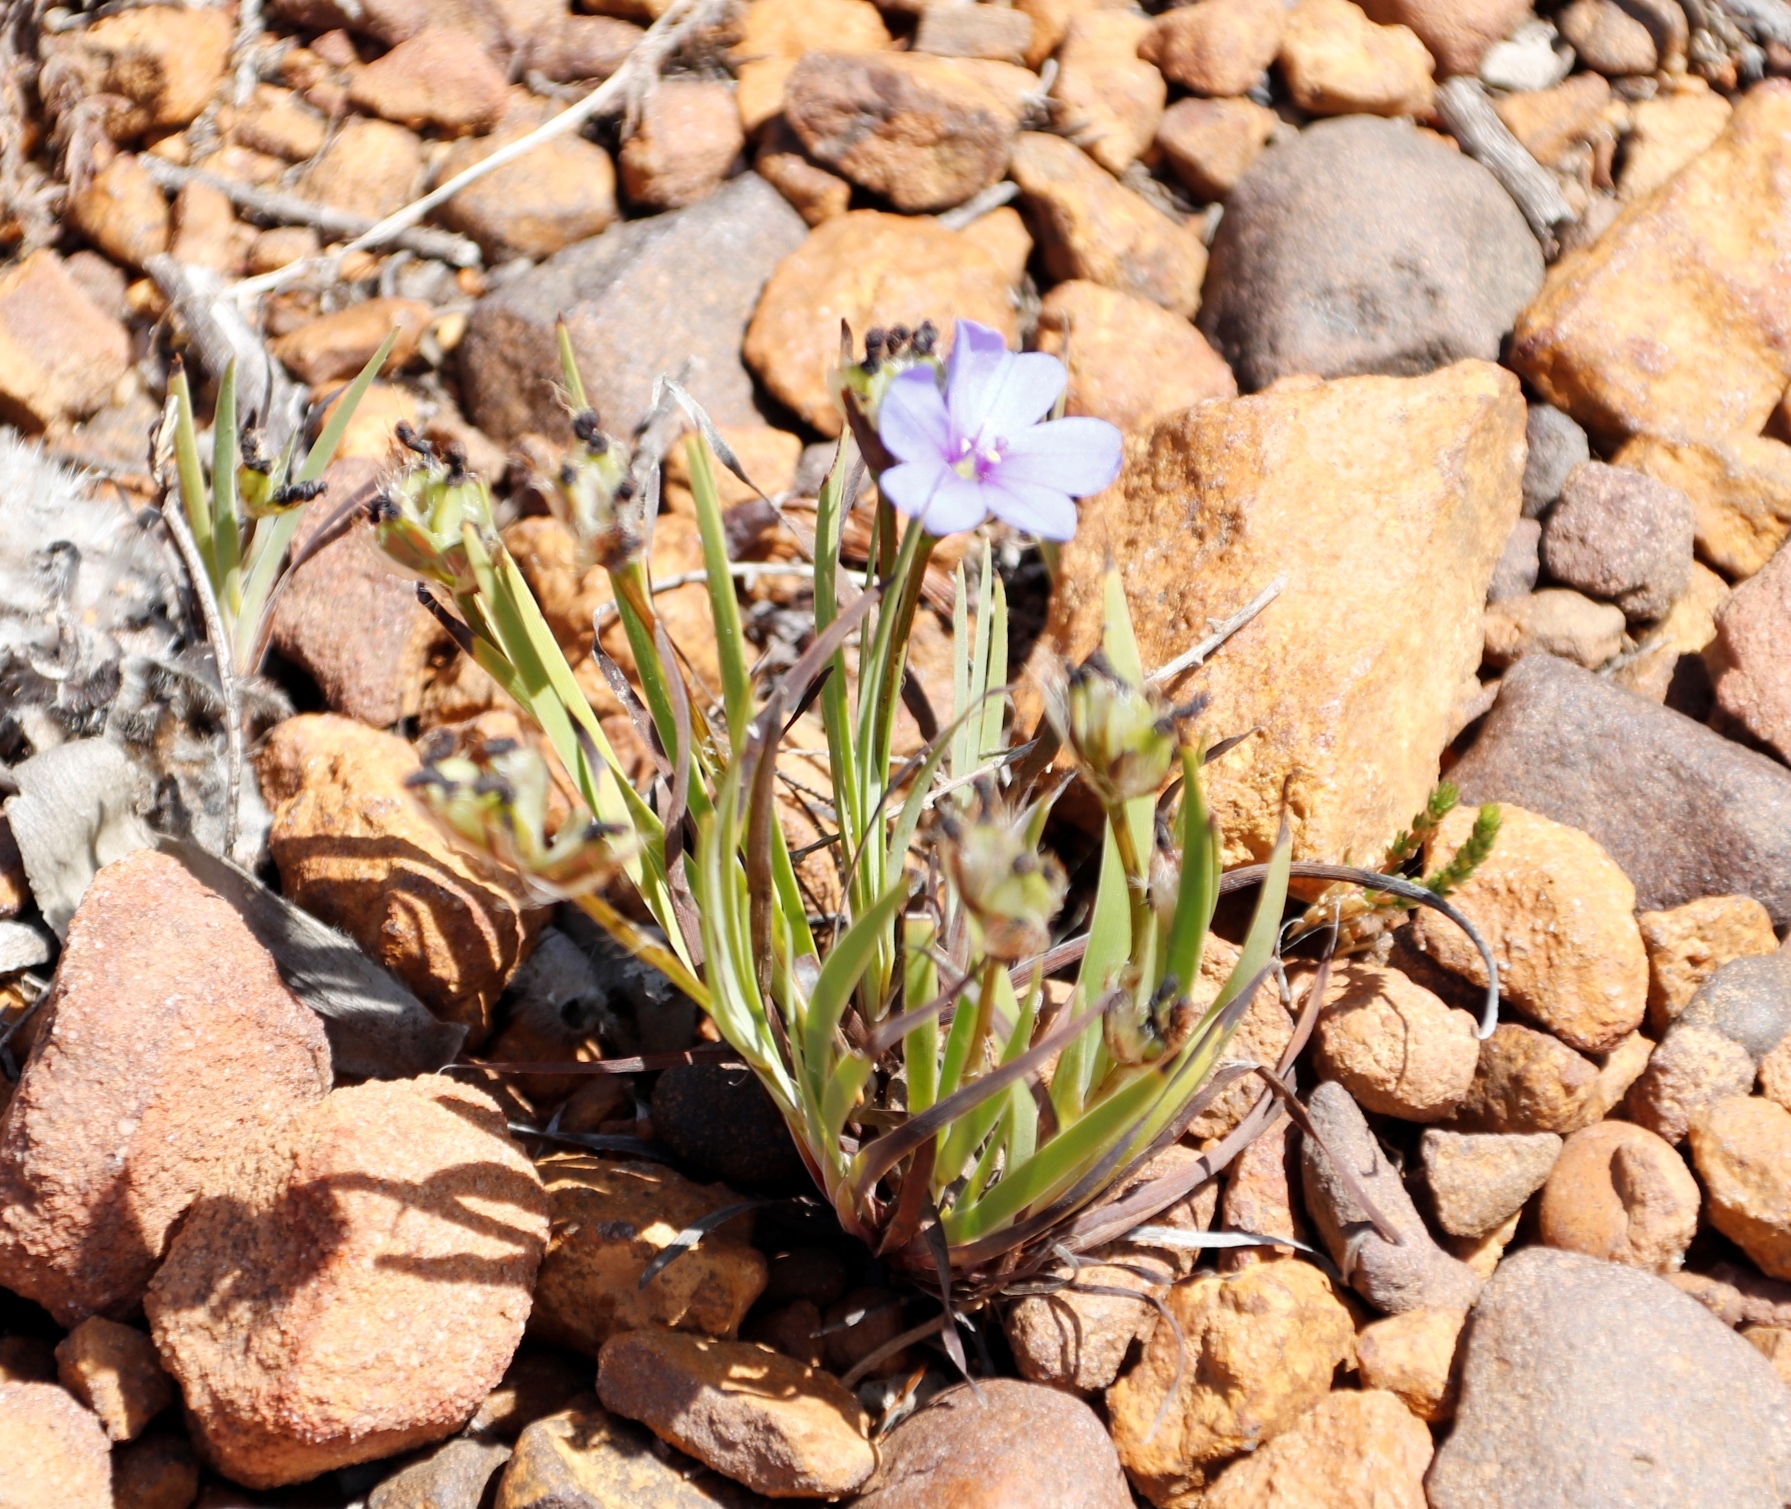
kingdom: Plantae
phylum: Tracheophyta
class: Liliopsida
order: Asparagales
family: Iridaceae
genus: Aristea
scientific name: Aristea africana
